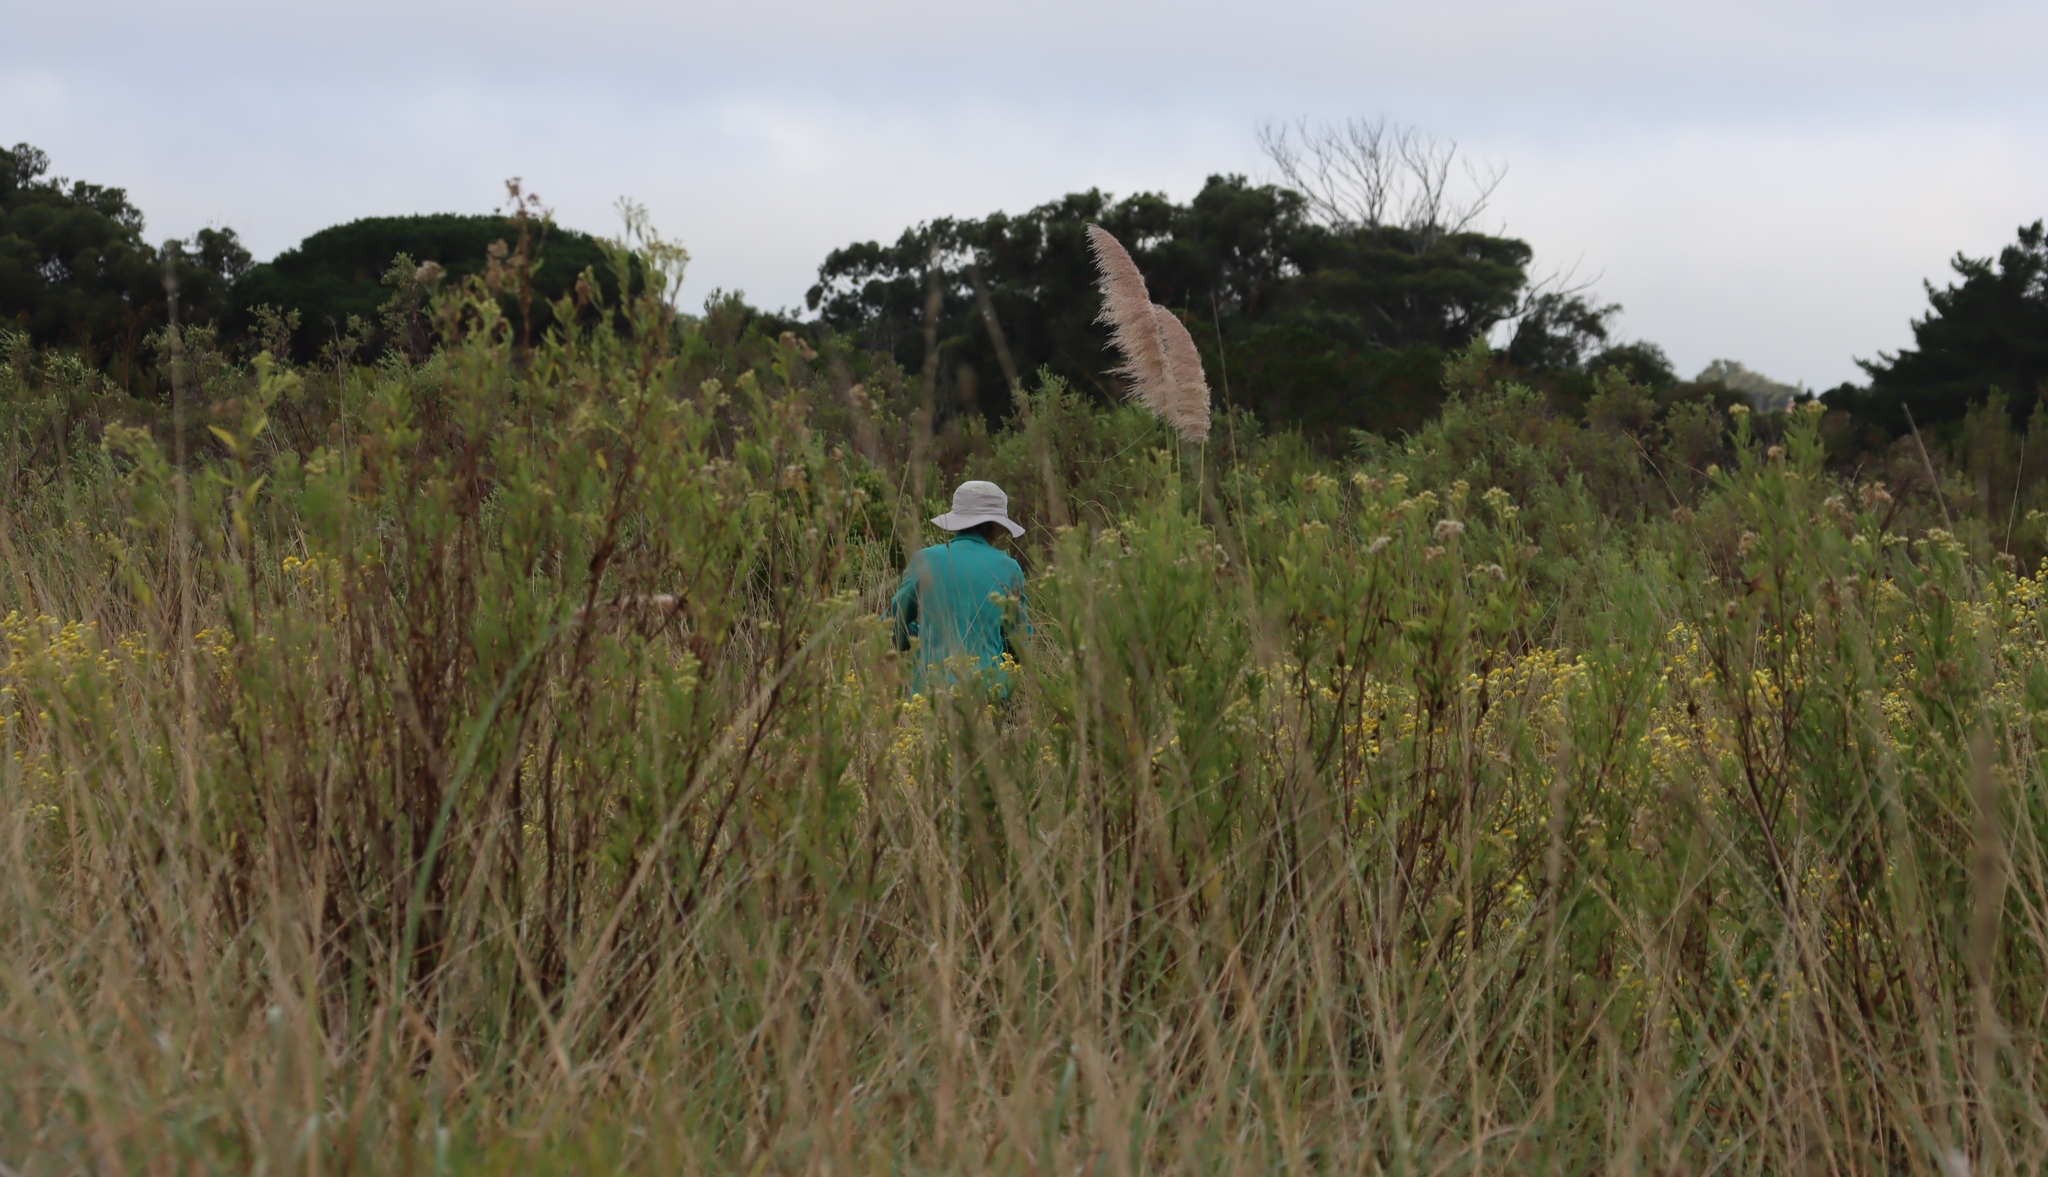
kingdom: Plantae
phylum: Tracheophyta
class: Liliopsida
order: Poales
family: Poaceae
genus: Cortaderia
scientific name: Cortaderia selloana
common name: Uruguayan pampas grass
